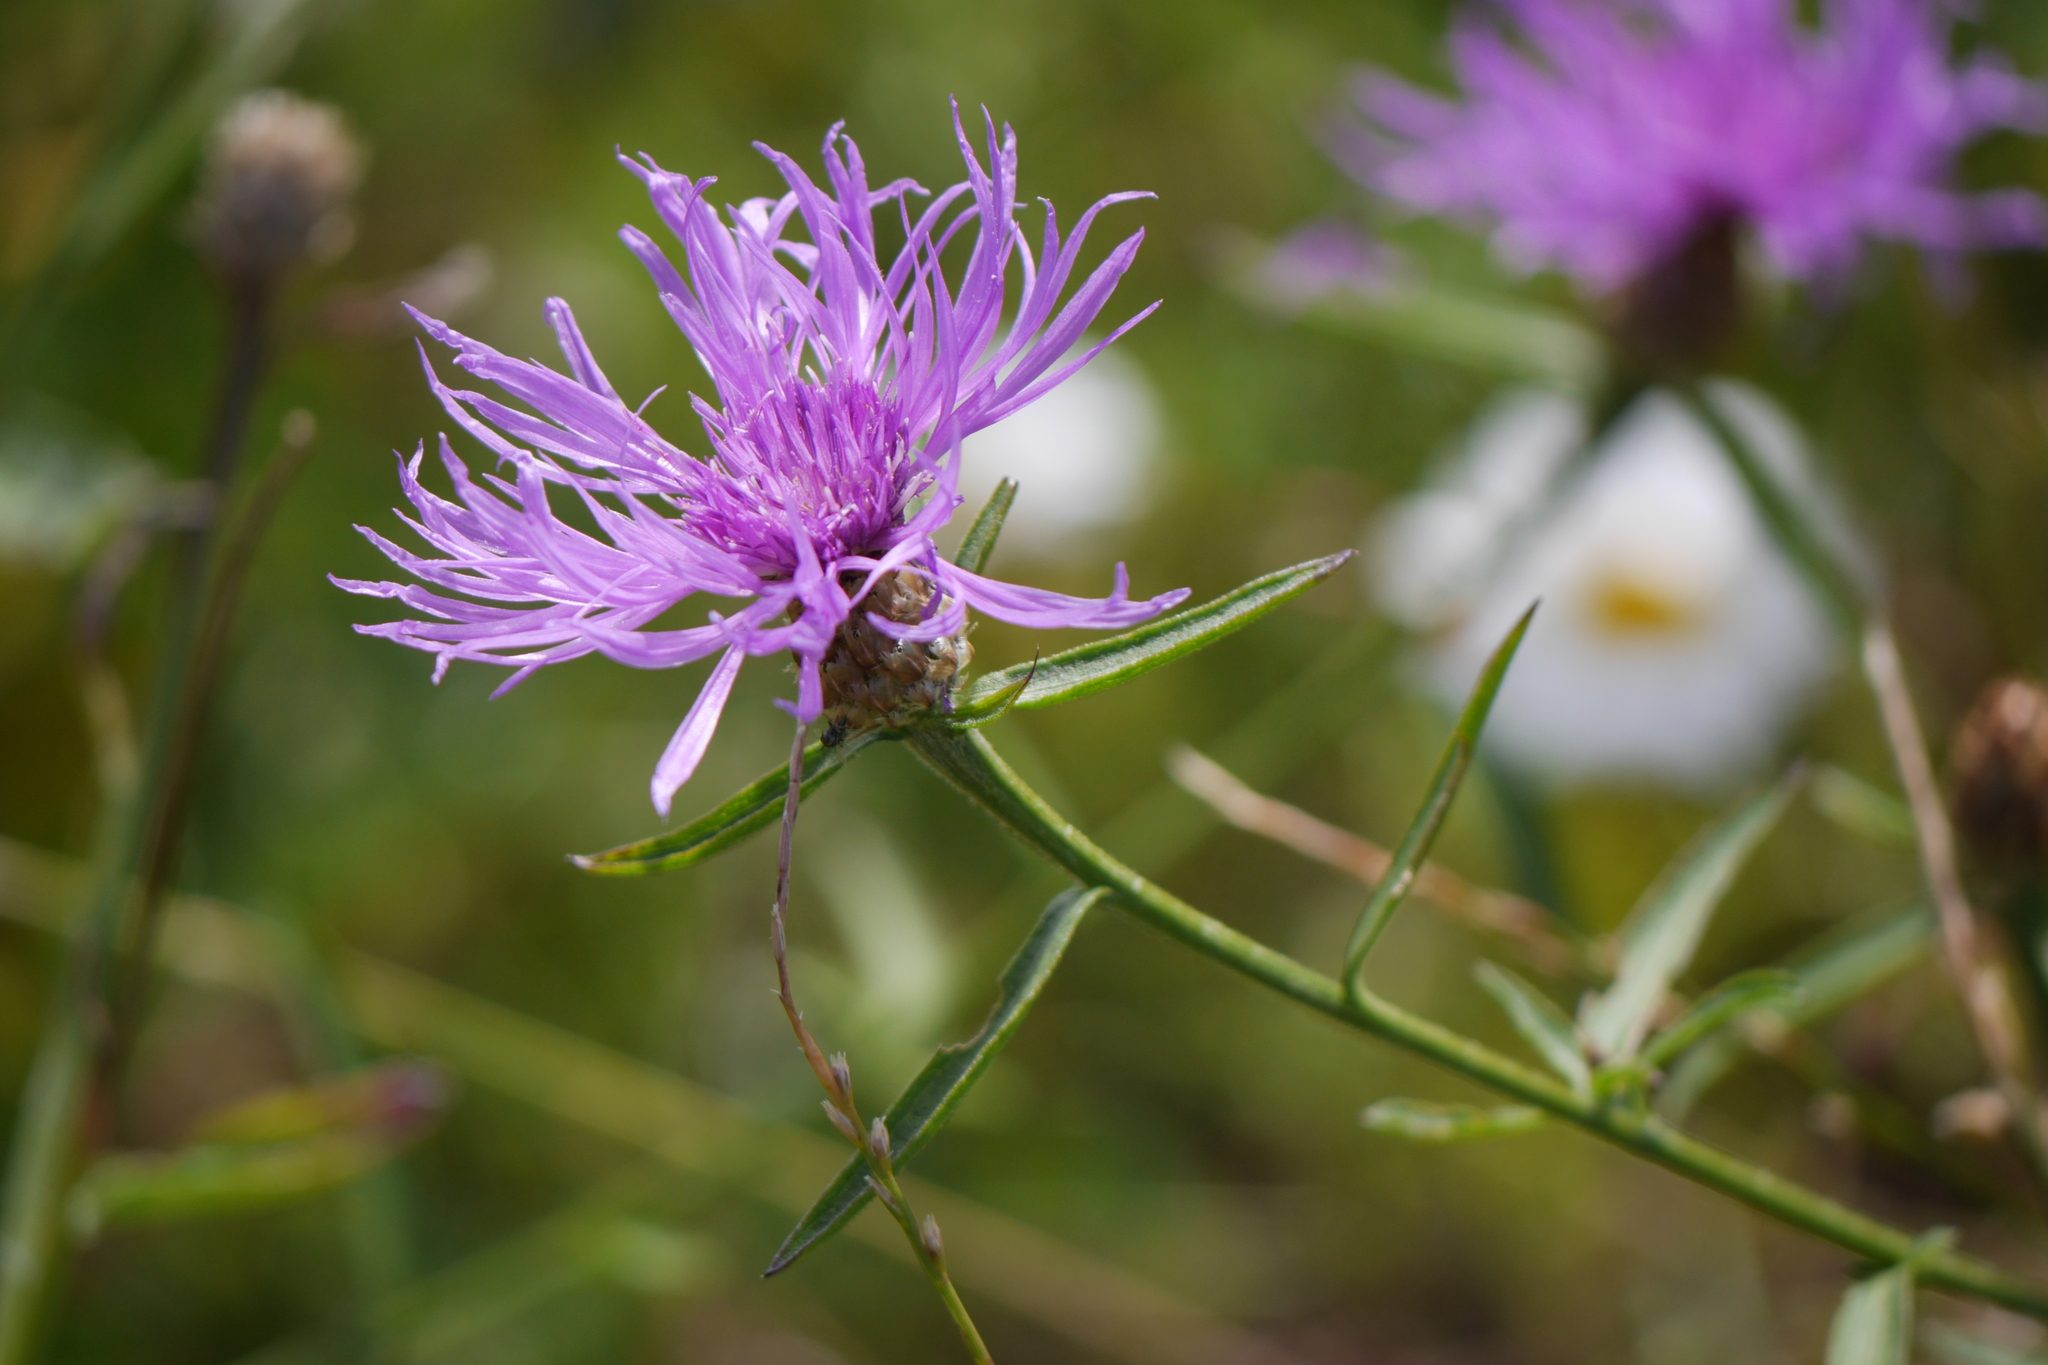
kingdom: Plantae
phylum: Tracheophyta
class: Magnoliopsida
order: Asterales
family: Asteraceae
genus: Centaurea
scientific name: Centaurea jacea
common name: Brown knapweed
